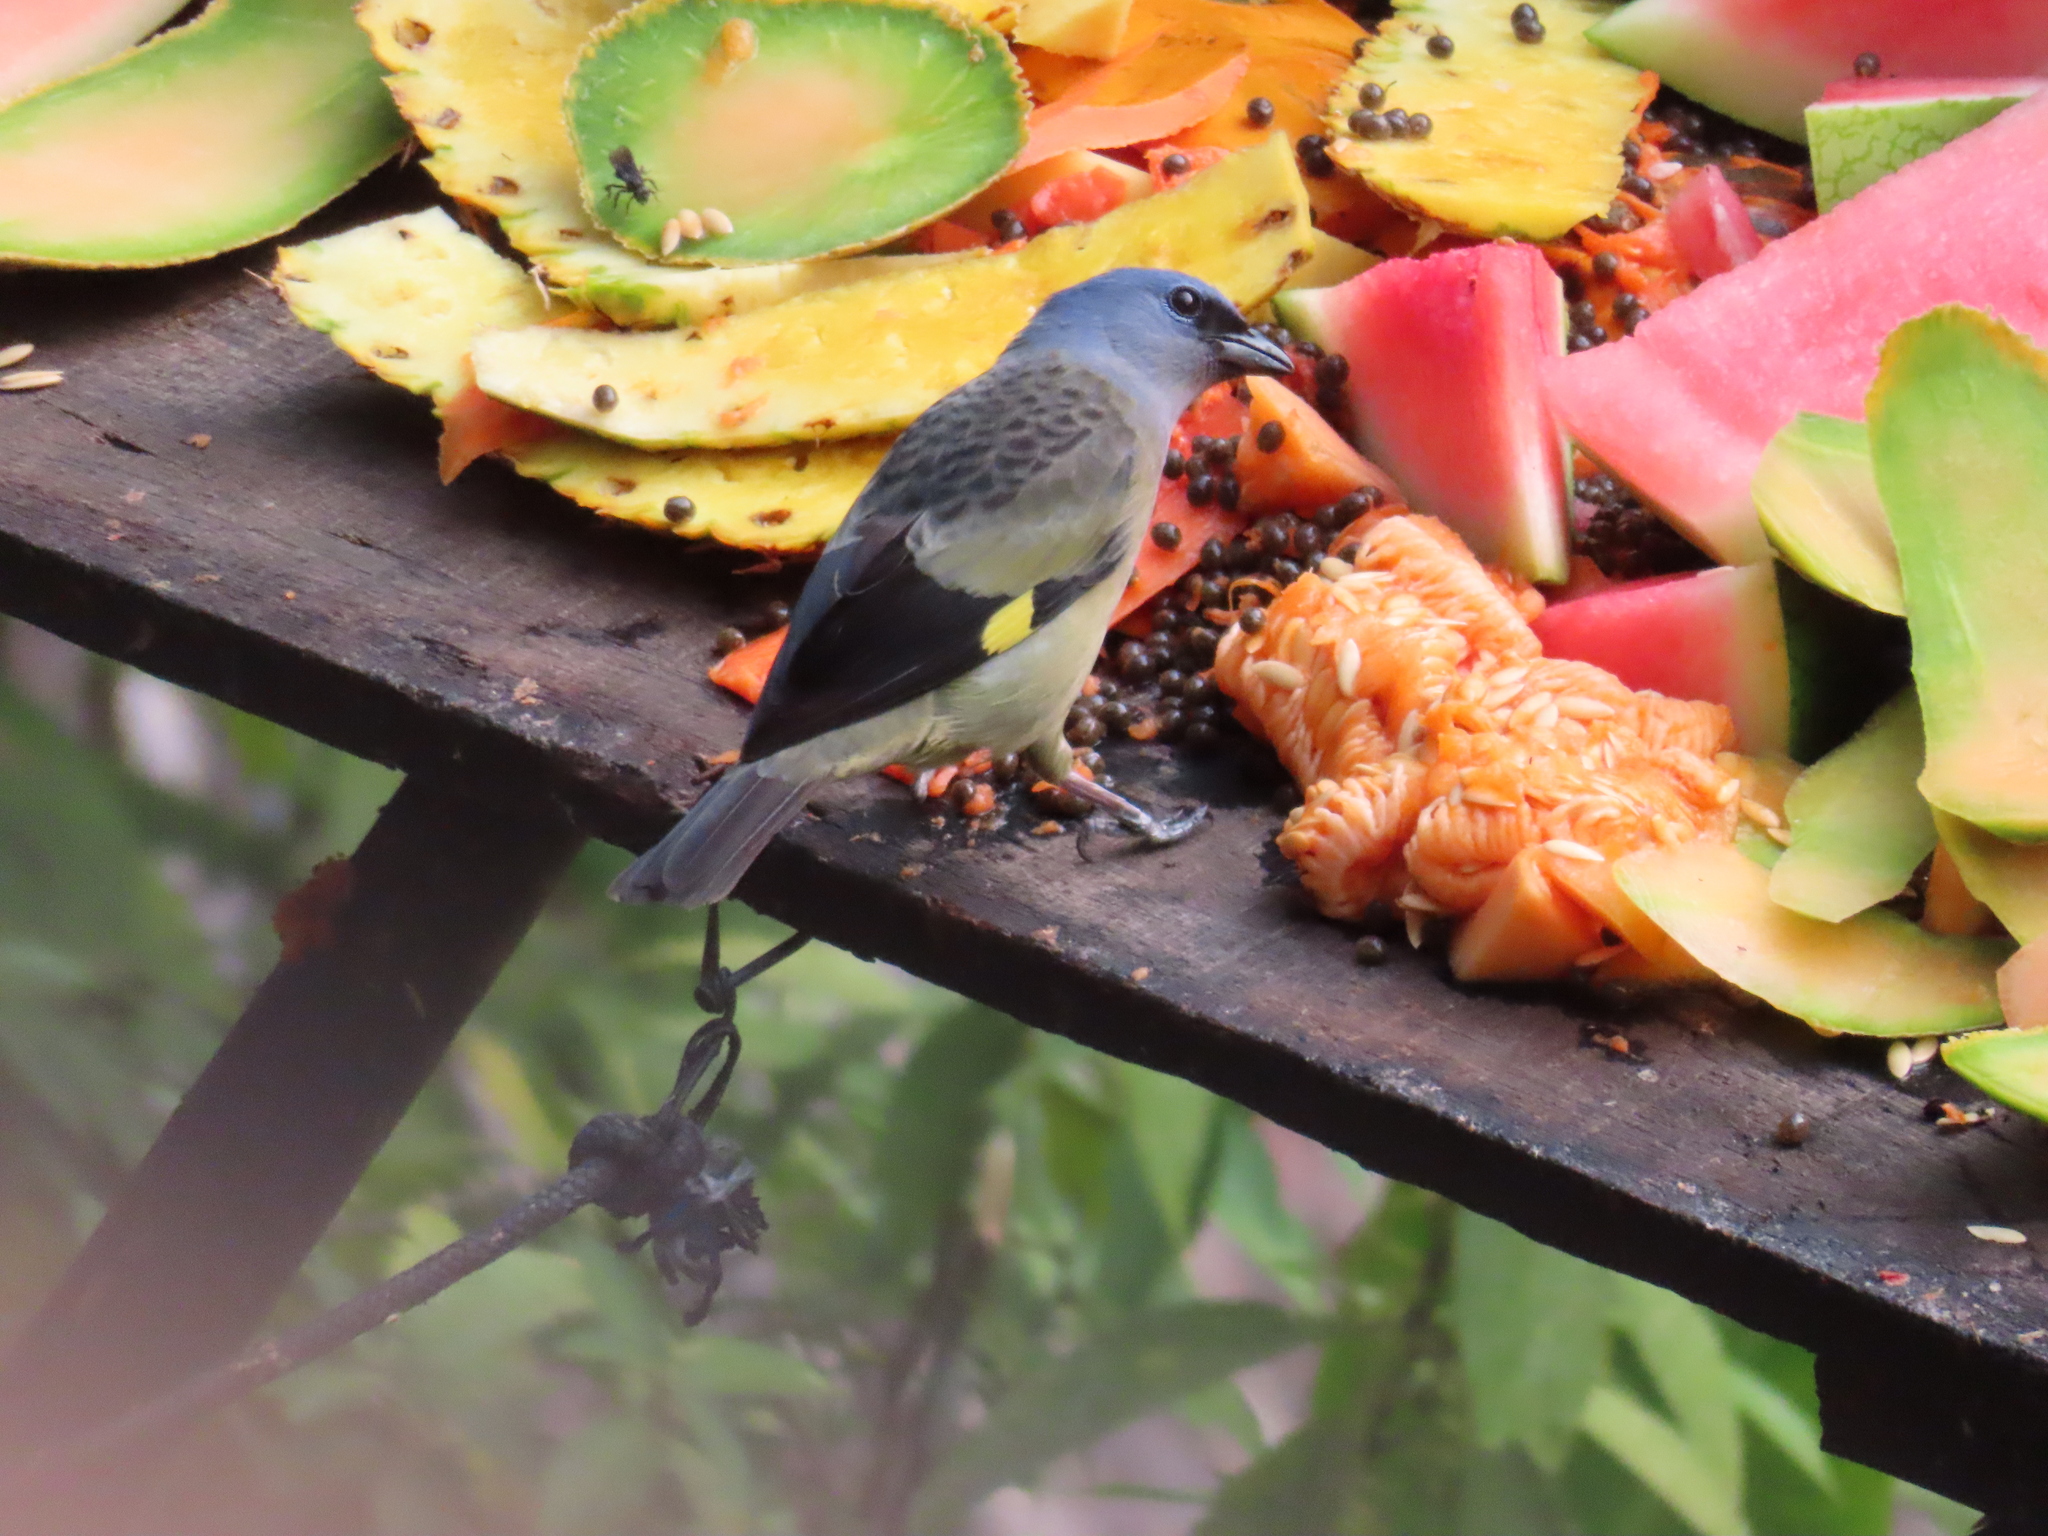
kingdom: Animalia
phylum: Chordata
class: Aves
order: Passeriformes
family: Thraupidae
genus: Thraupis
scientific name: Thraupis abbas
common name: Yellow-winged tanager
